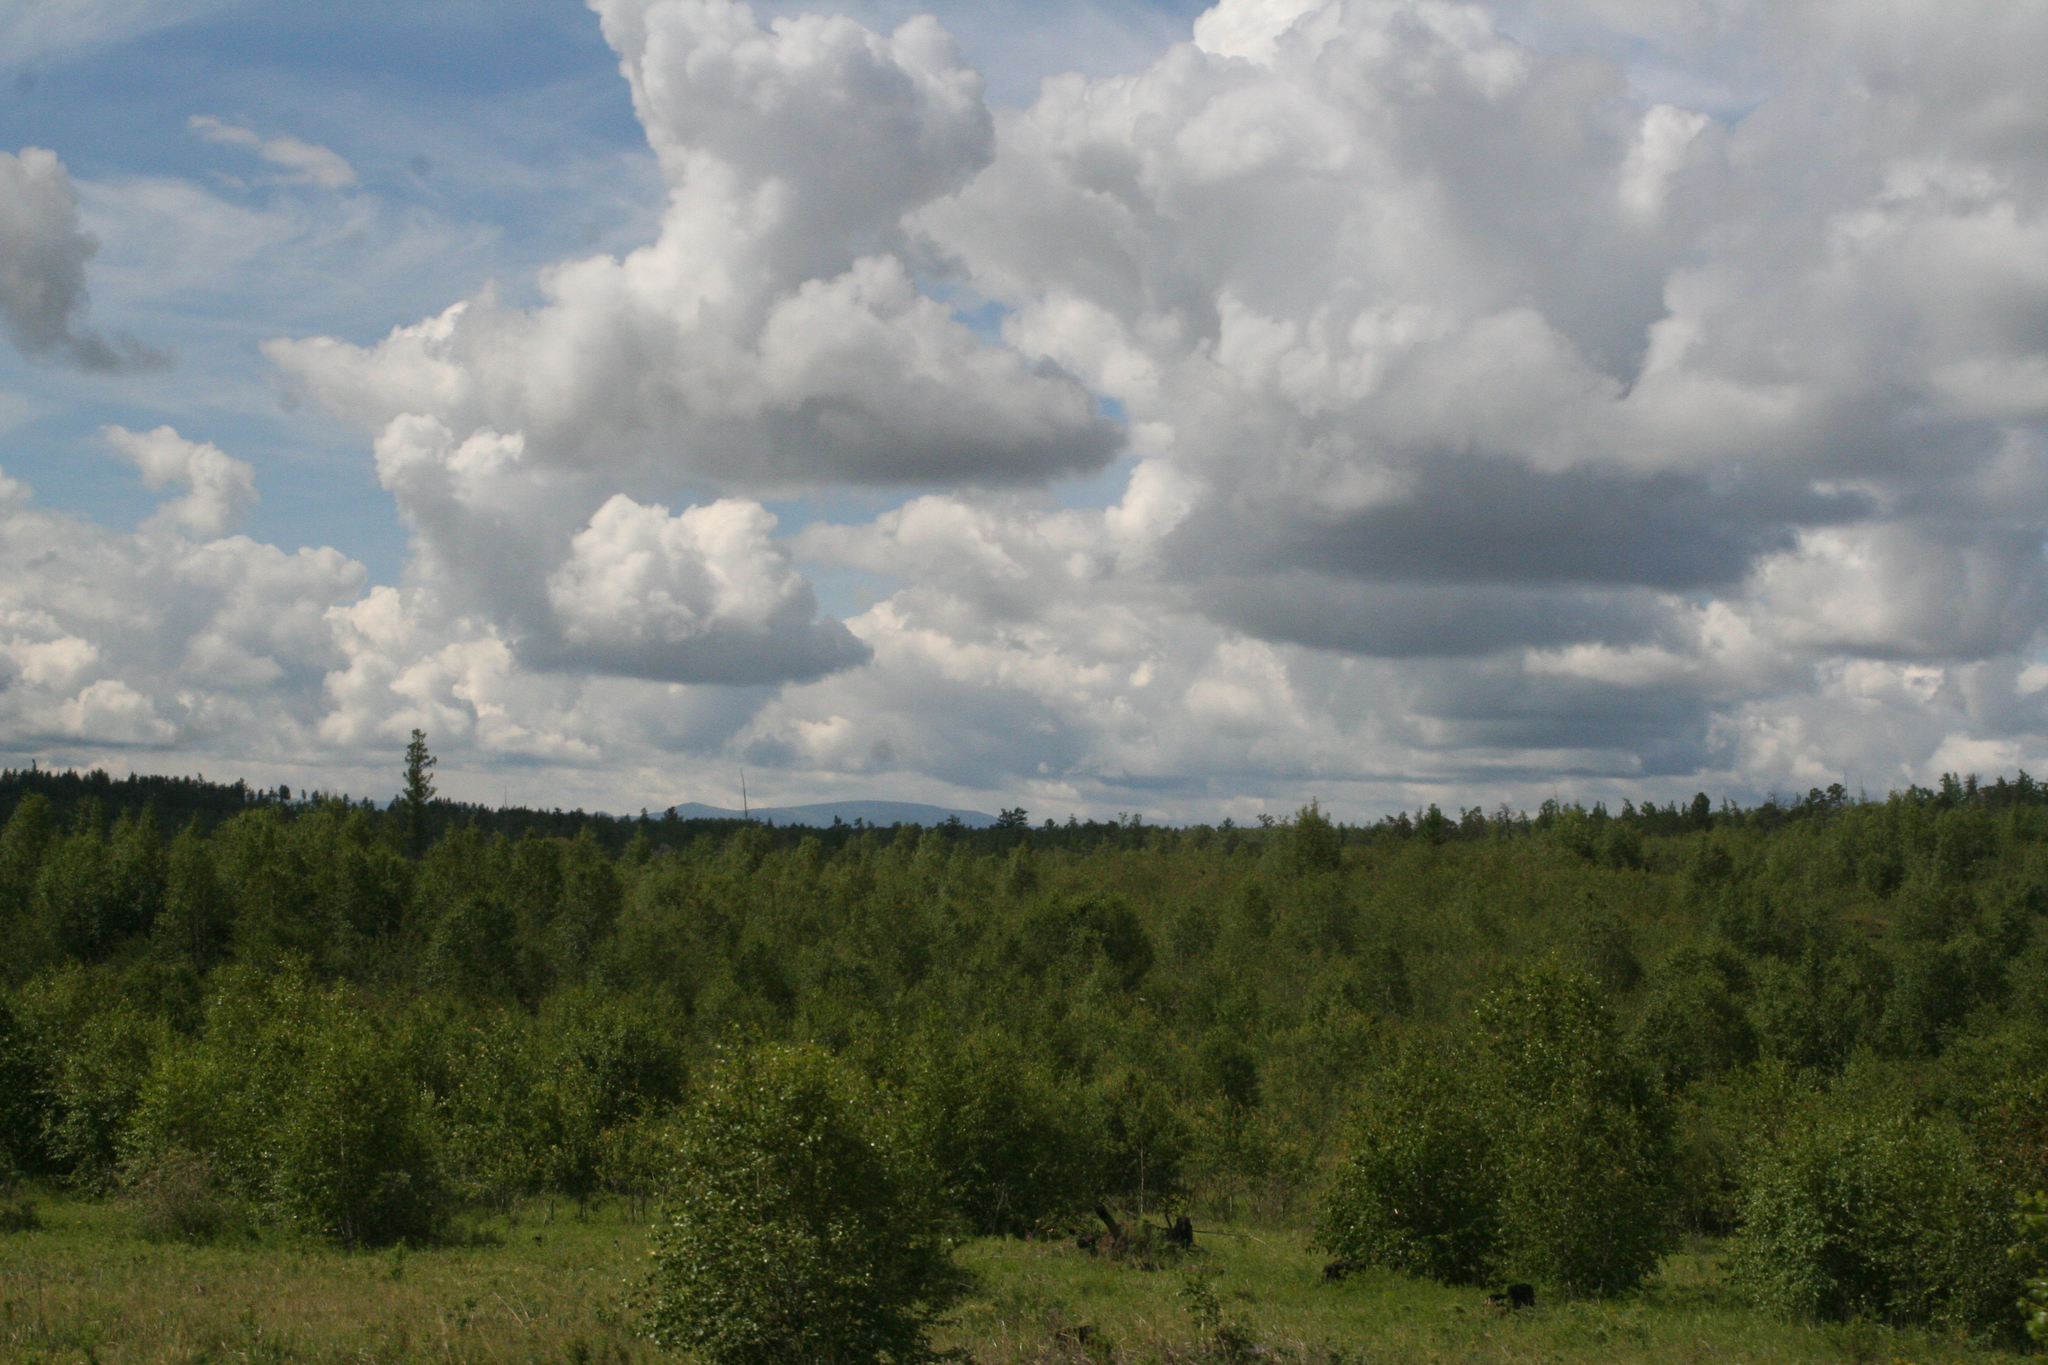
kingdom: Plantae
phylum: Tracheophyta
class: Pinopsida
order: Pinales
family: Pinaceae
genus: Pinus
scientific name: Pinus sylvestris
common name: Scots pine
